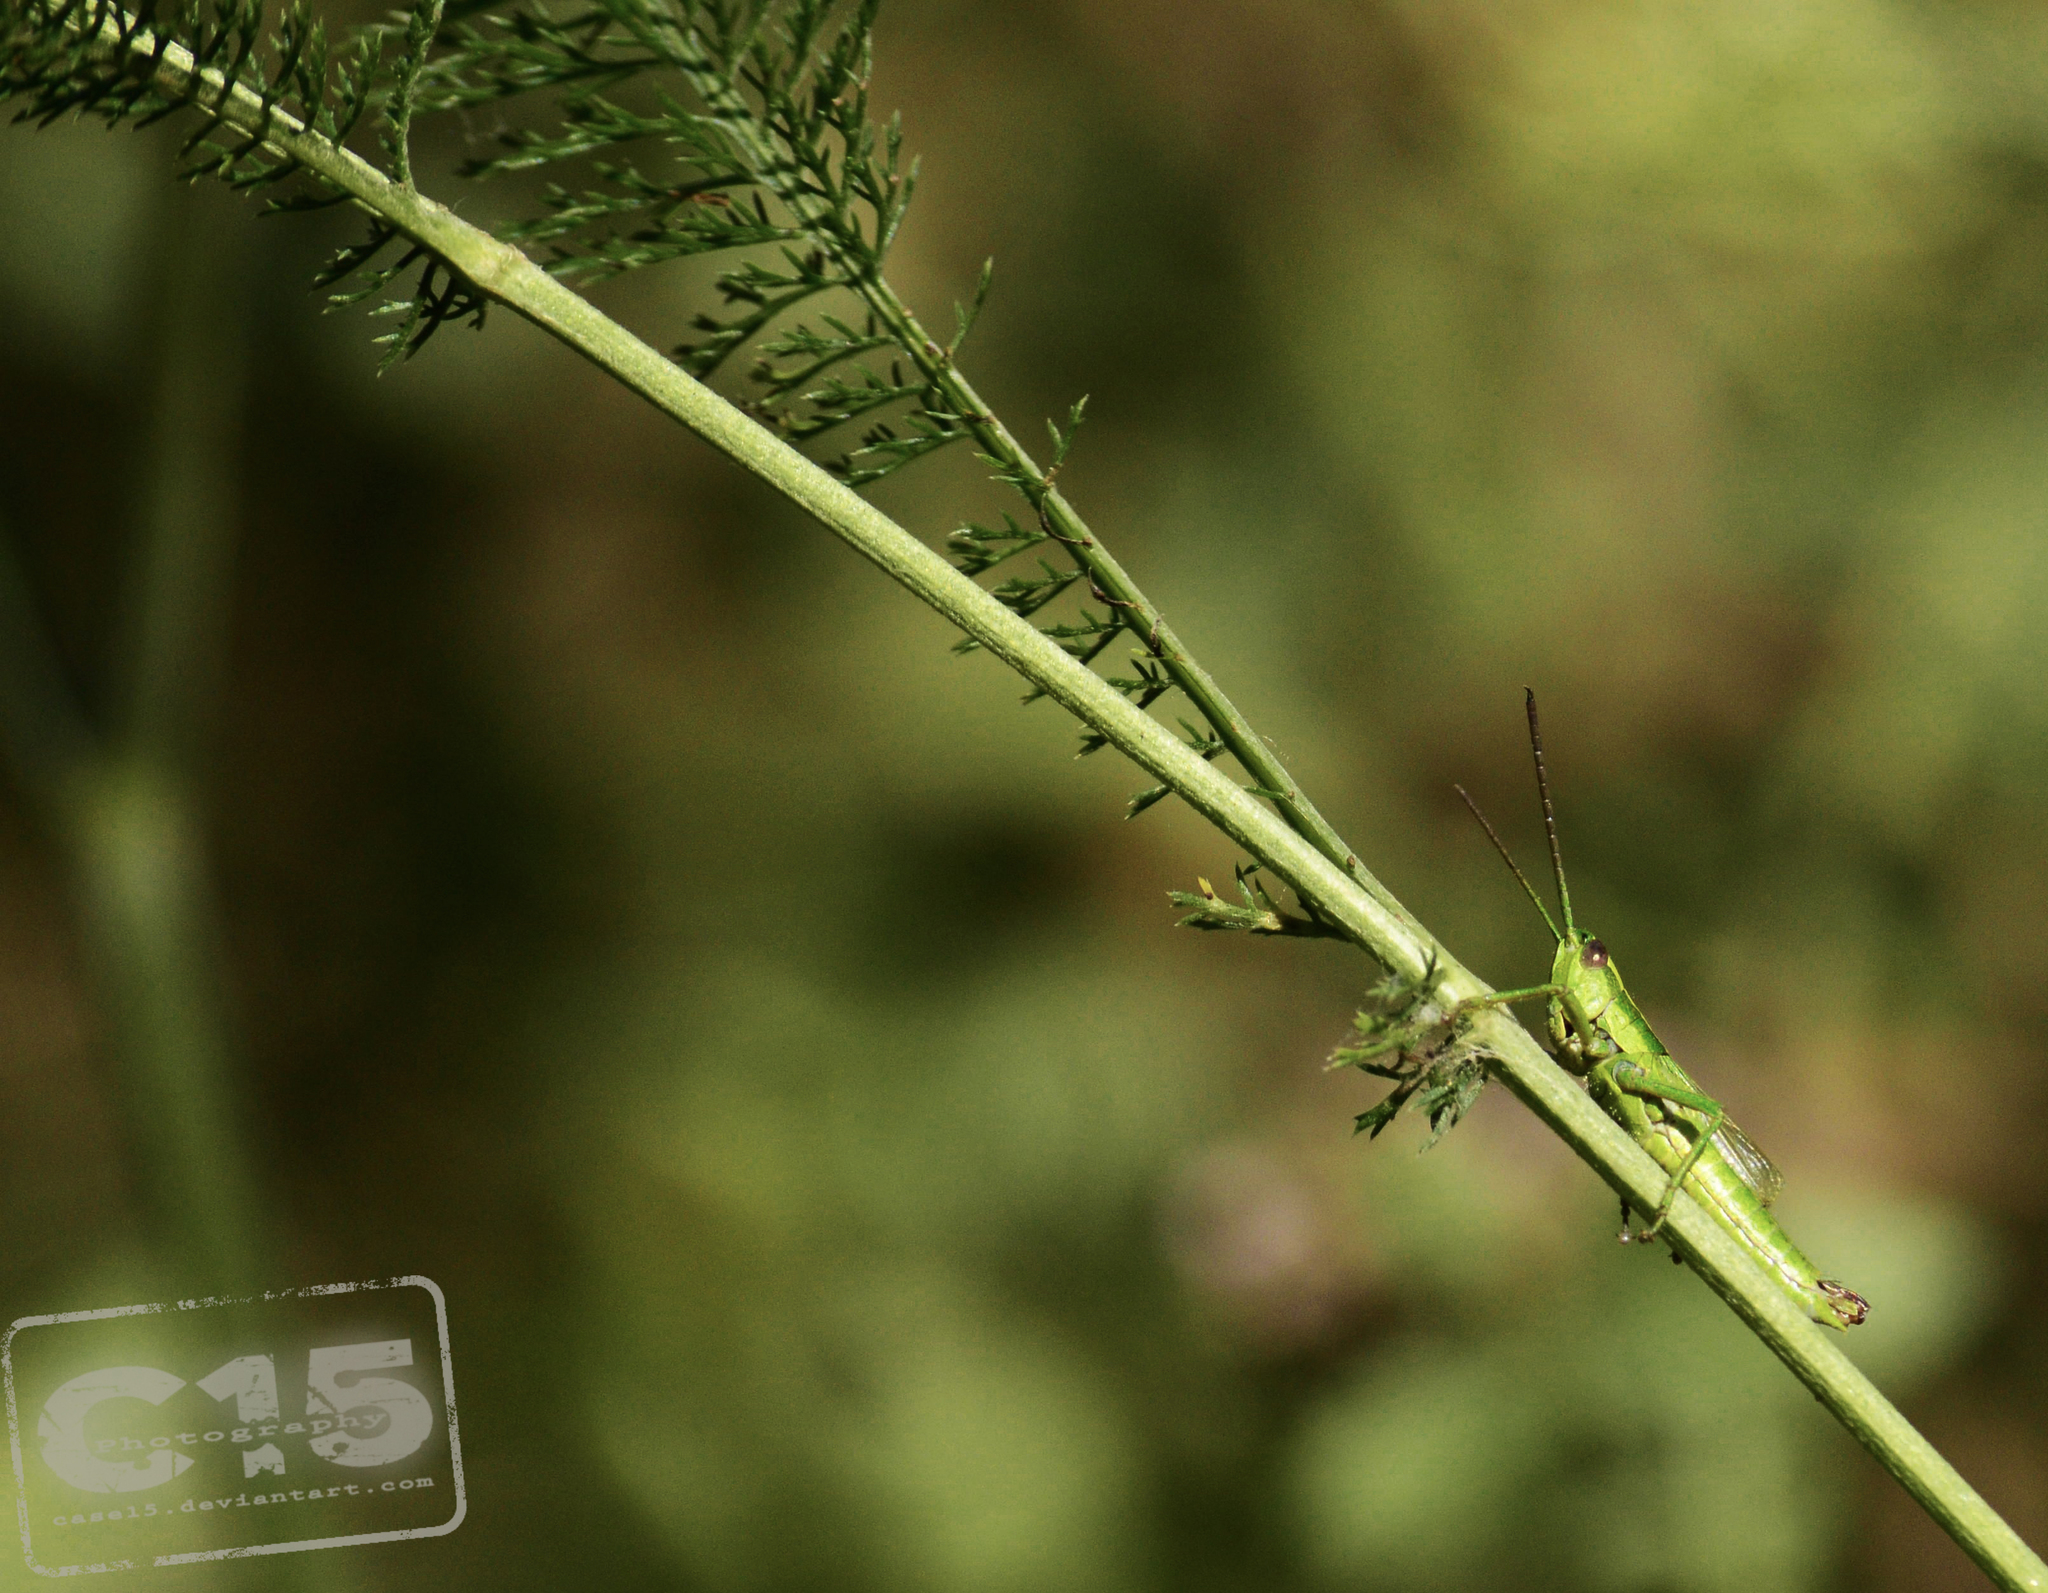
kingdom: Animalia
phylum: Arthropoda
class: Insecta
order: Orthoptera
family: Acrididae
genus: Euthystira
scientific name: Euthystira brachyptera
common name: Small gold grasshopper
